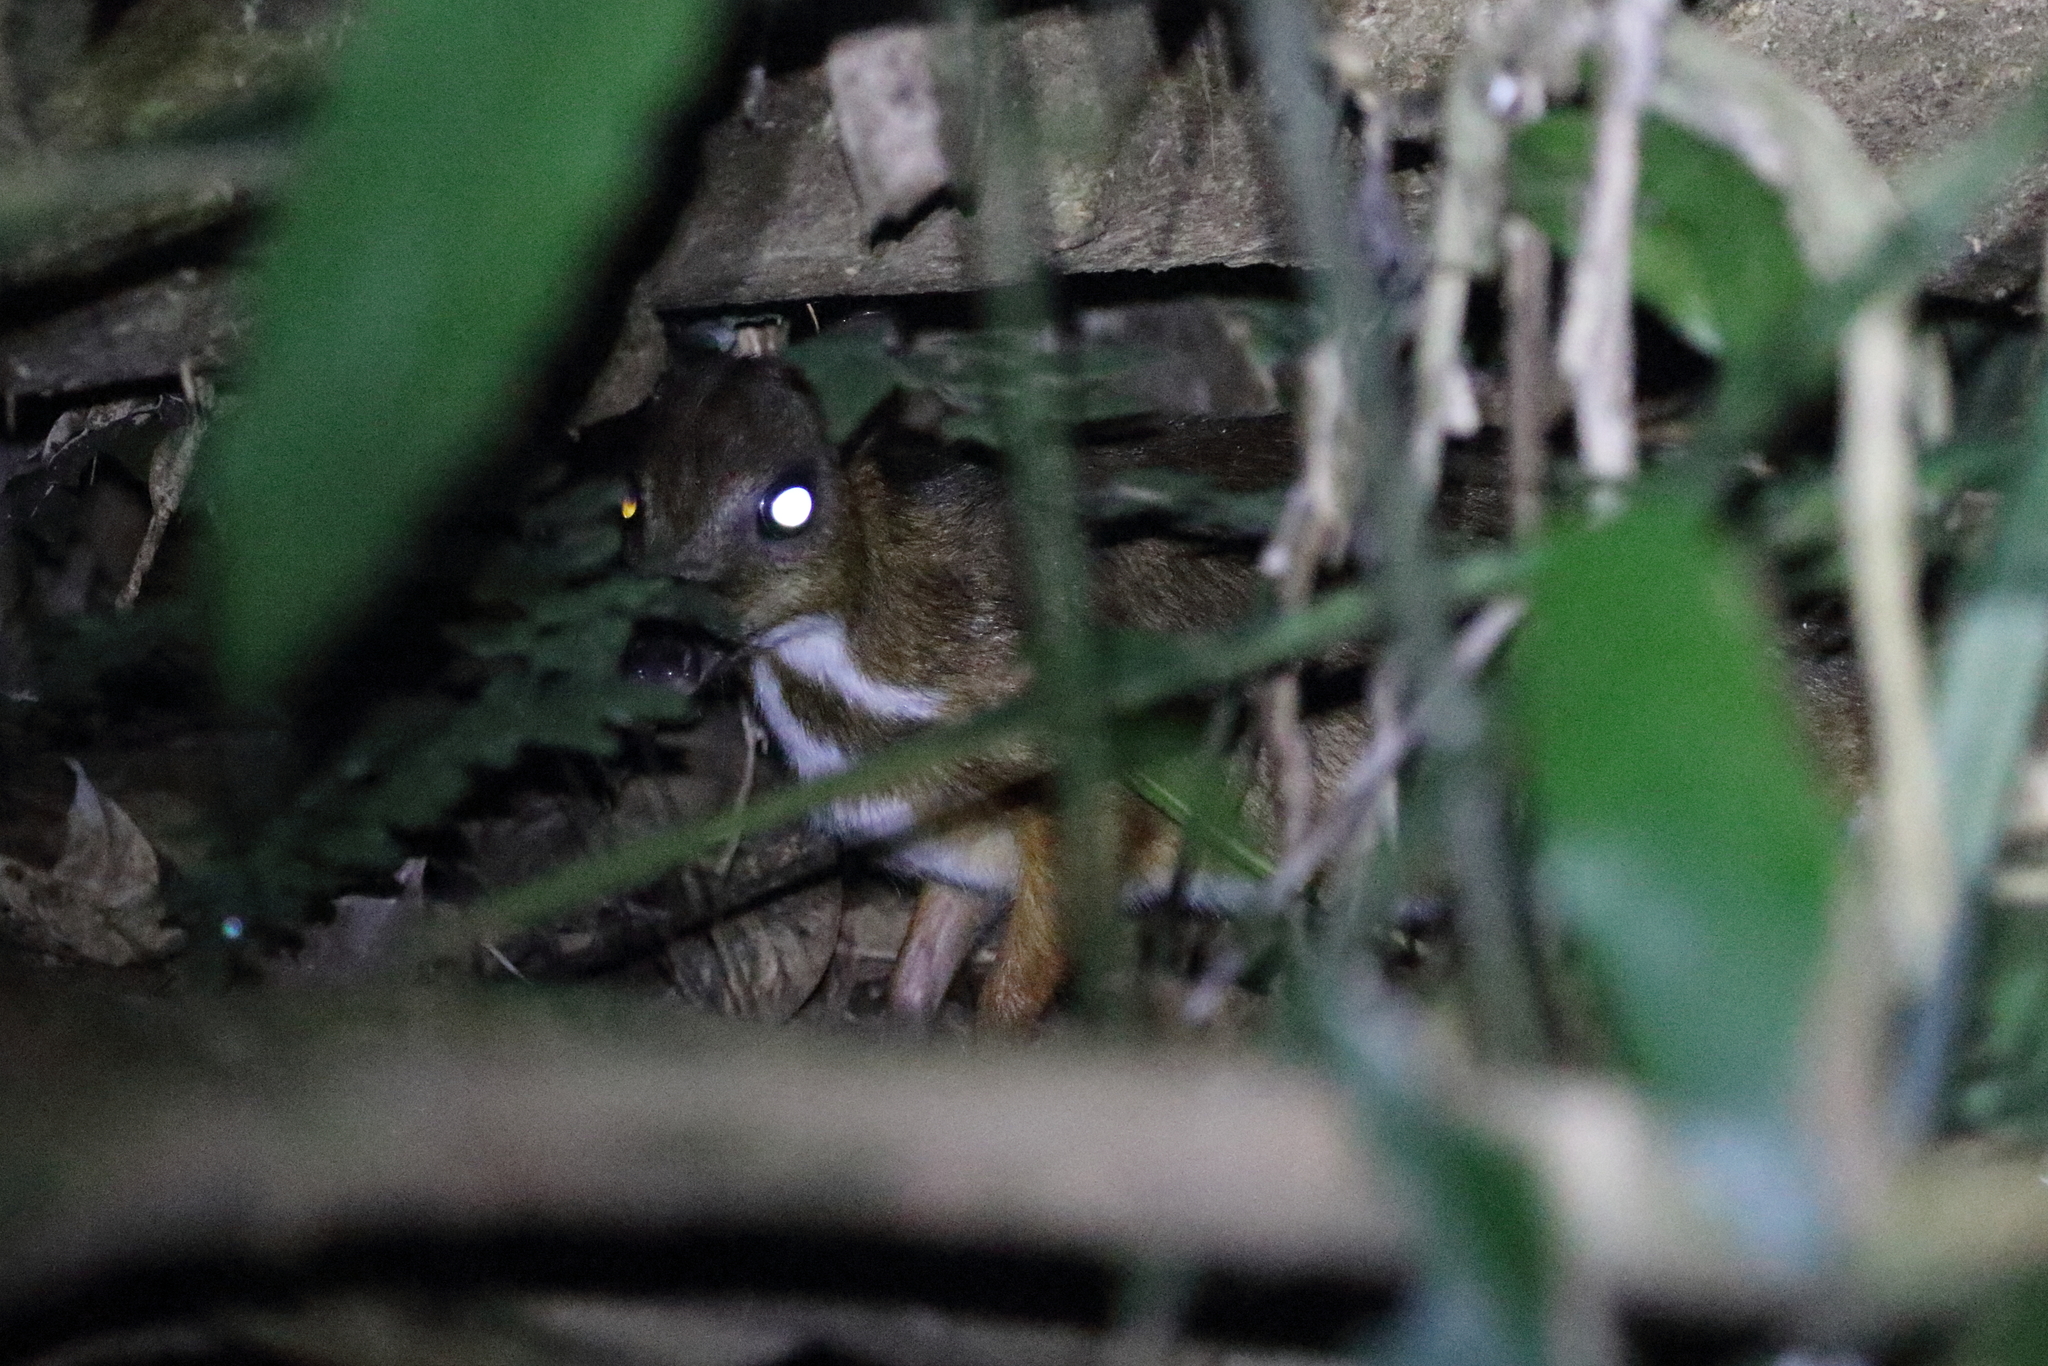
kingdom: Animalia
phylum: Chordata
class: Mammalia
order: Artiodactyla
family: Tragulidae
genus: Tragulus
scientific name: Tragulus kanchil
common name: Lesser mouse-deer
